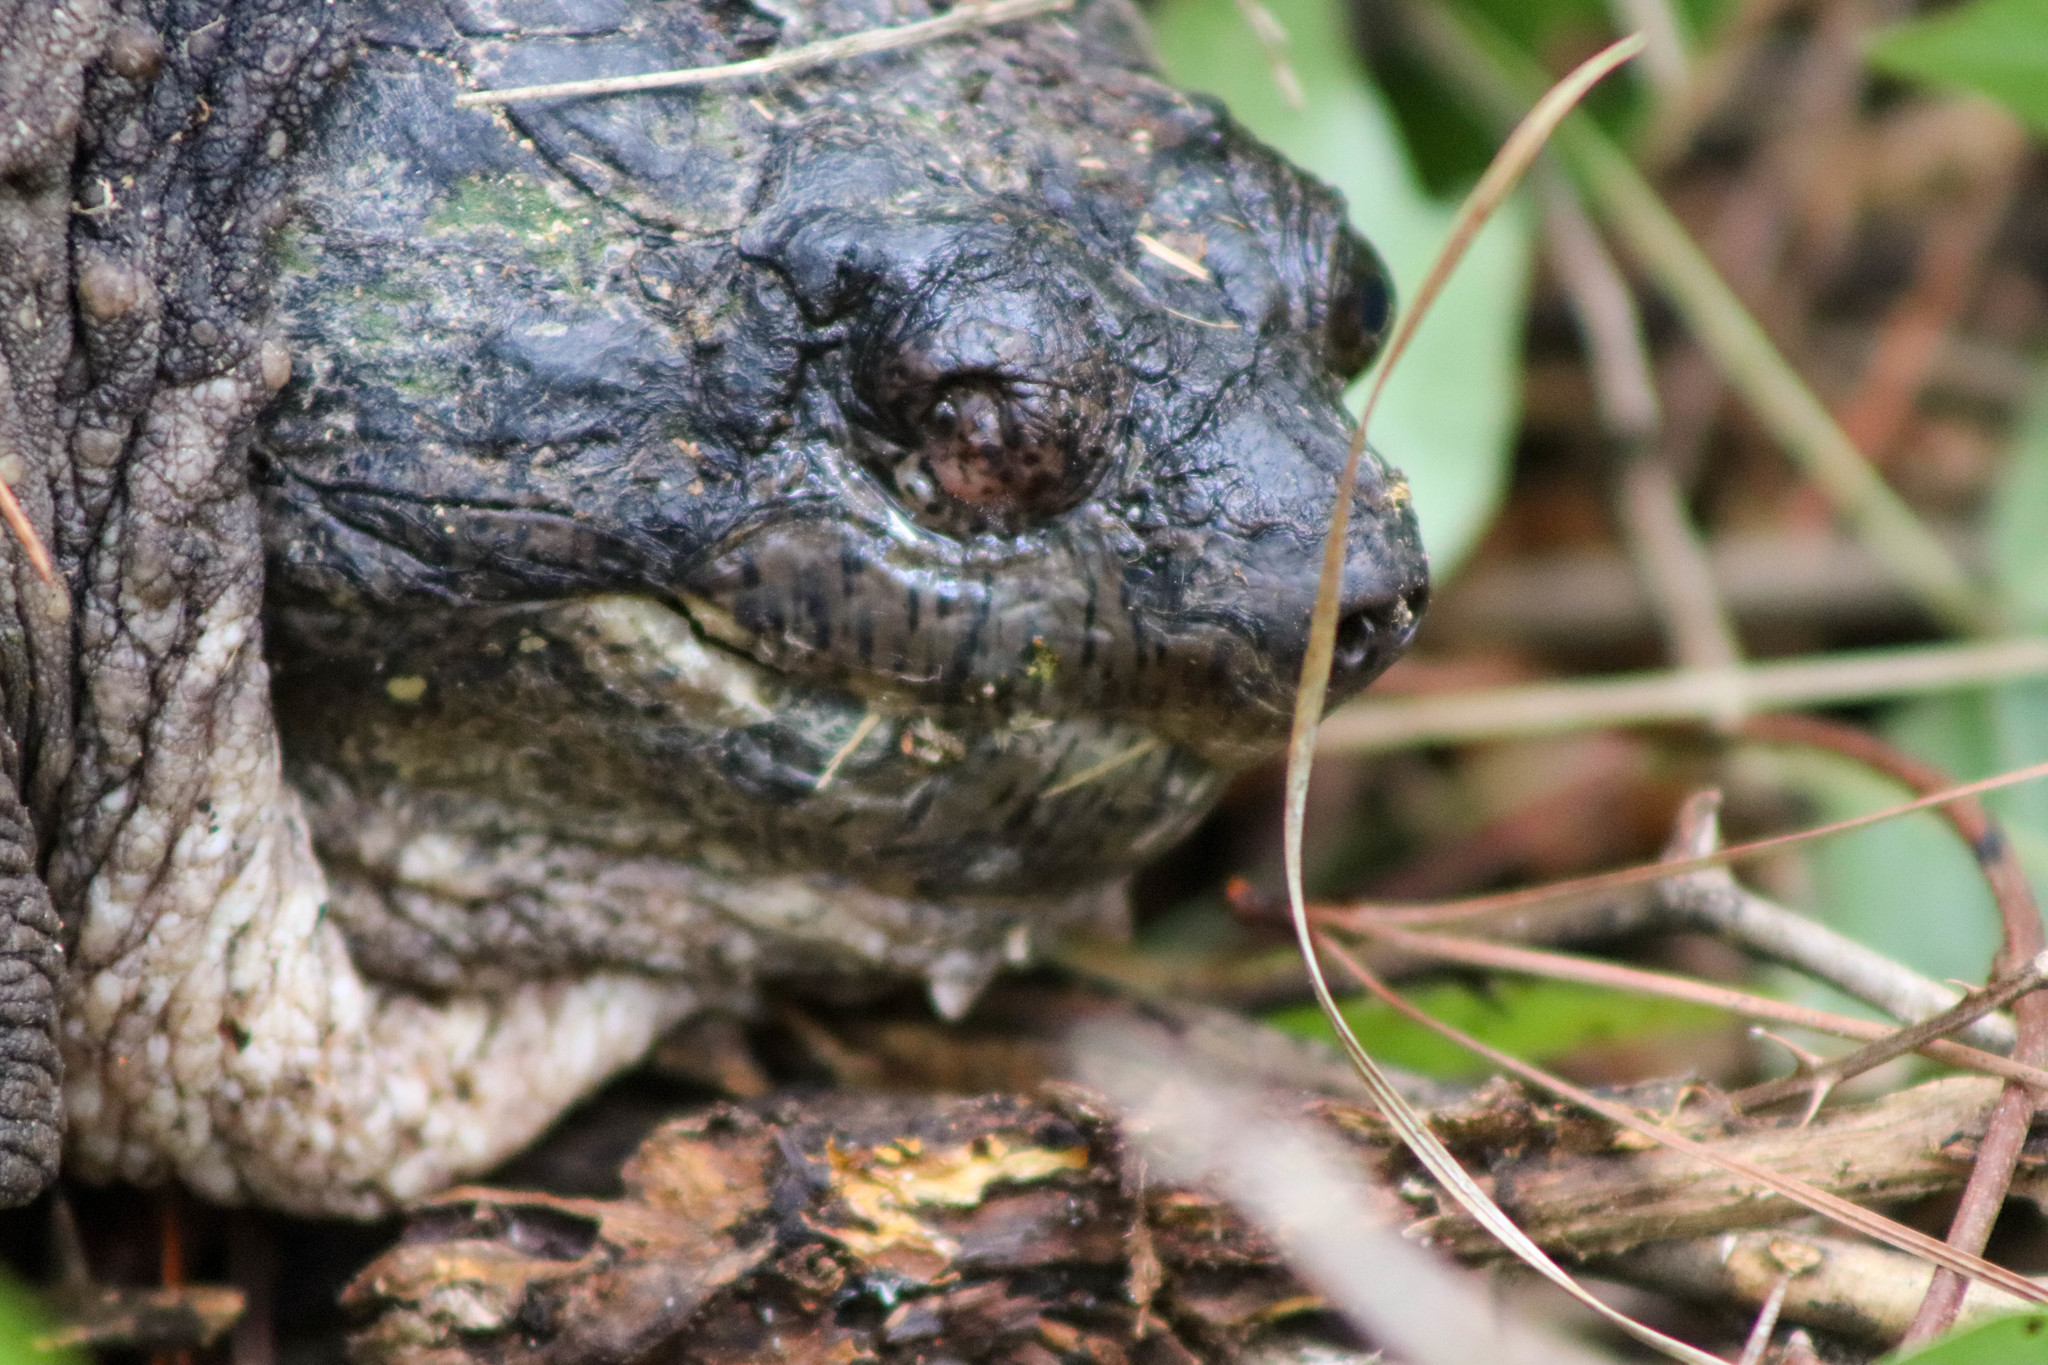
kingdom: Animalia
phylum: Chordata
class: Testudines
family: Chelydridae
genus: Chelydra
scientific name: Chelydra serpentina
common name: Common snapping turtle
